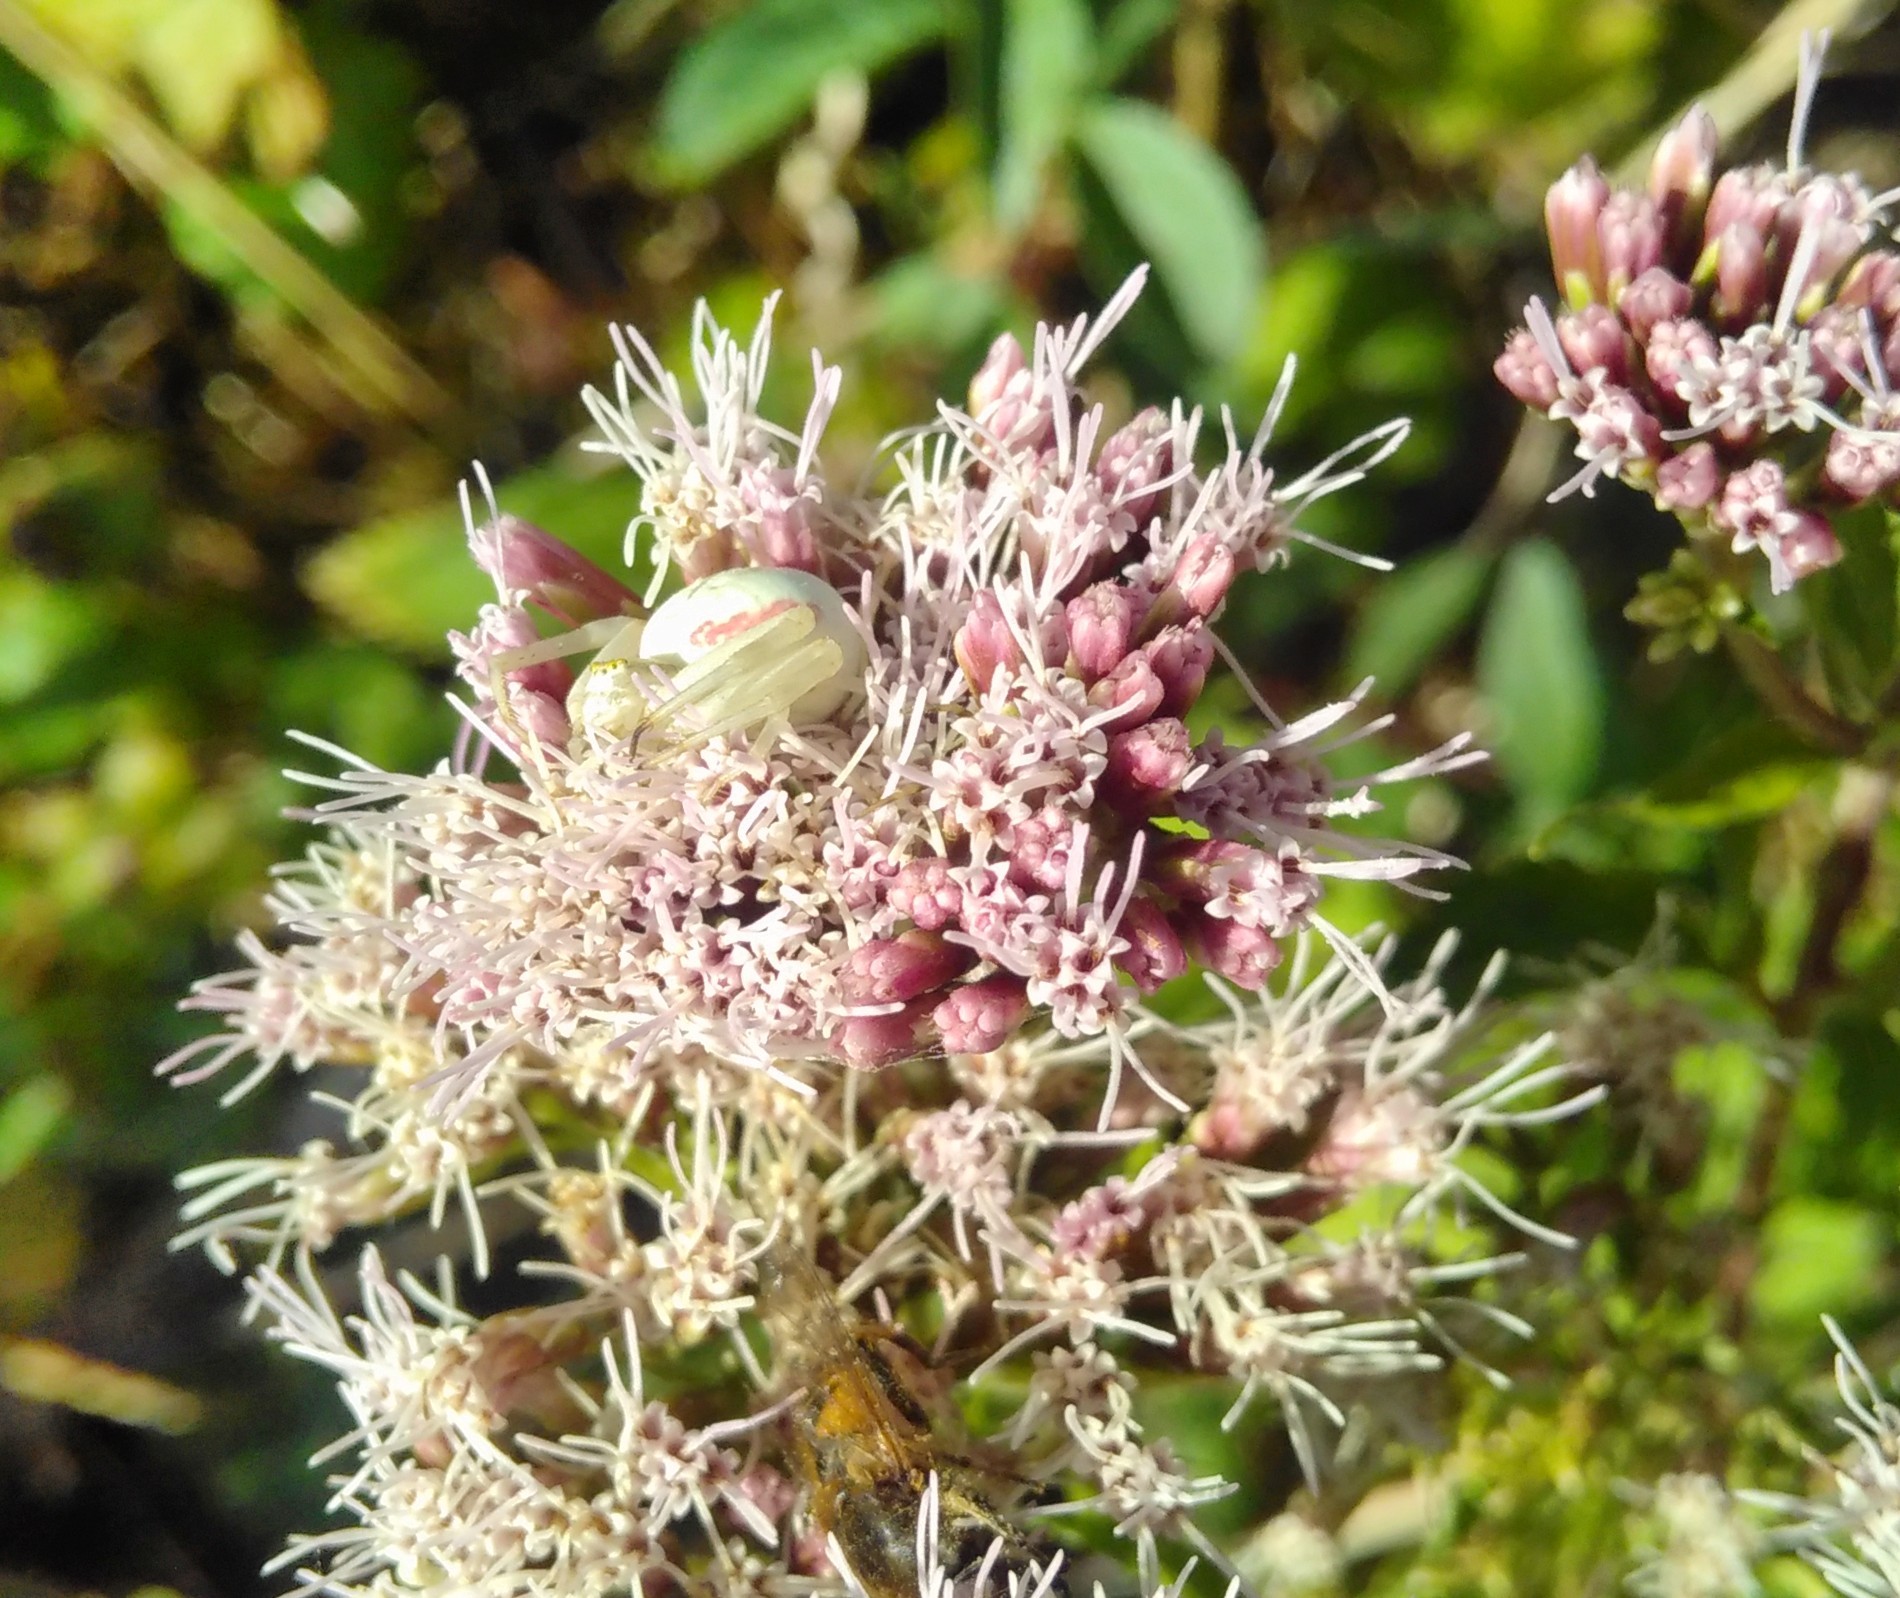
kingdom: Plantae
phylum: Tracheophyta
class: Magnoliopsida
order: Asterales
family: Asteraceae
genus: Eupatorium
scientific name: Eupatorium cannabinum
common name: Hemp-agrimony
